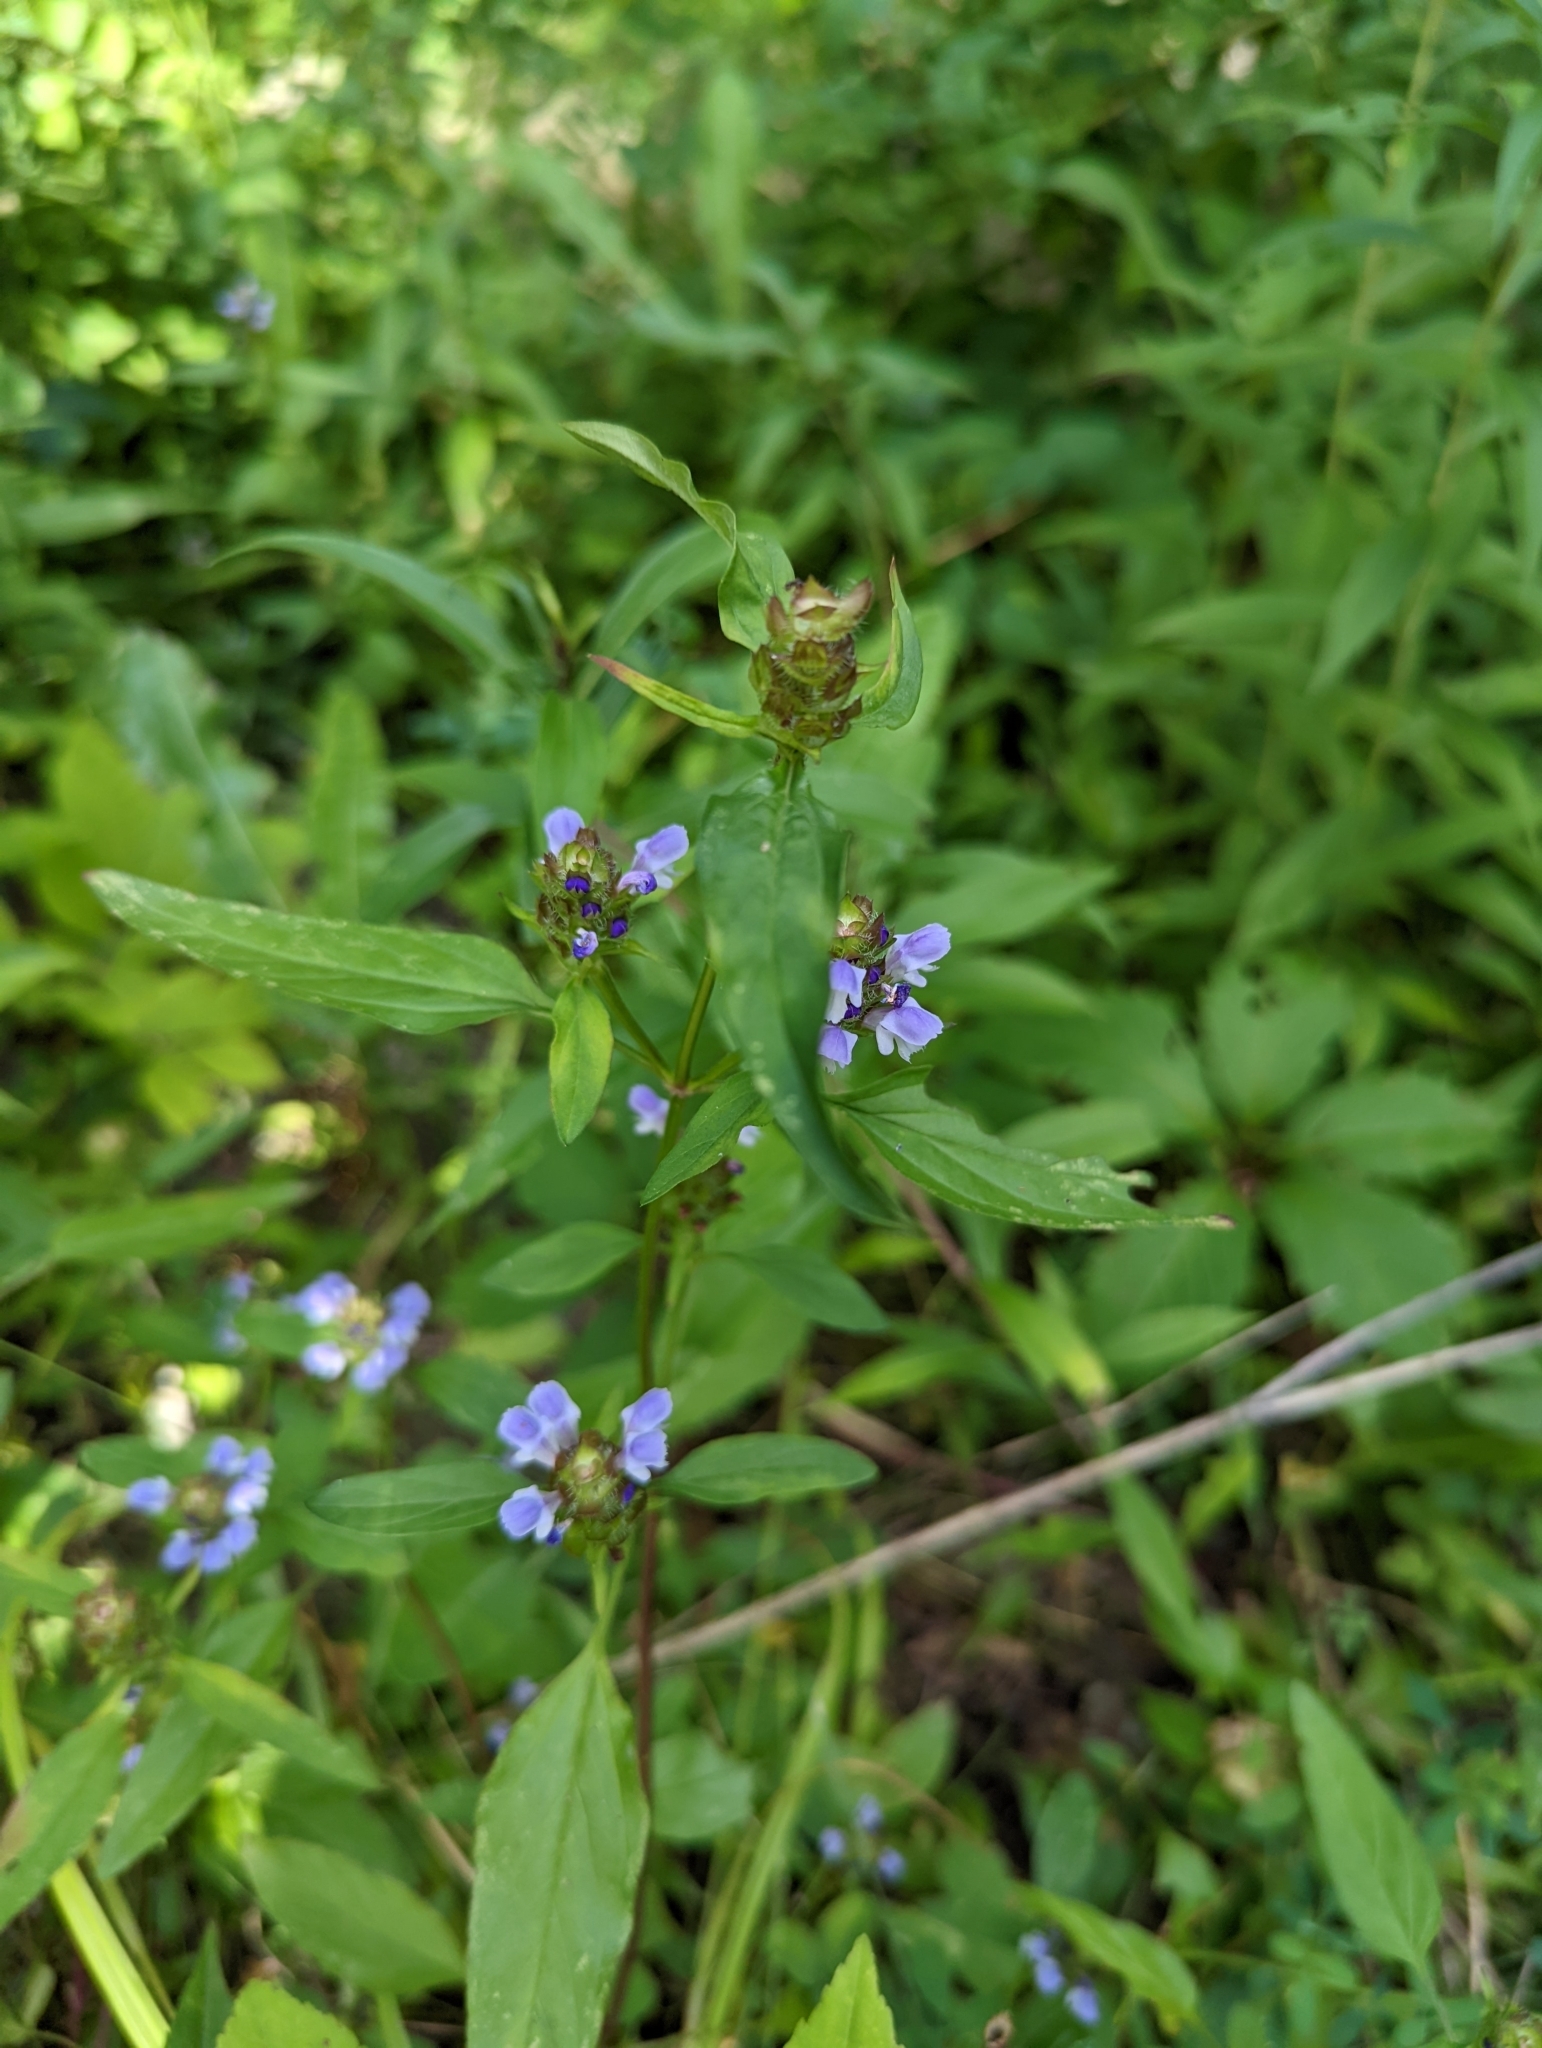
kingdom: Plantae
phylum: Tracheophyta
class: Magnoliopsida
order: Lamiales
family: Lamiaceae
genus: Prunella
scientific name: Prunella vulgaris
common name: Heal-all
